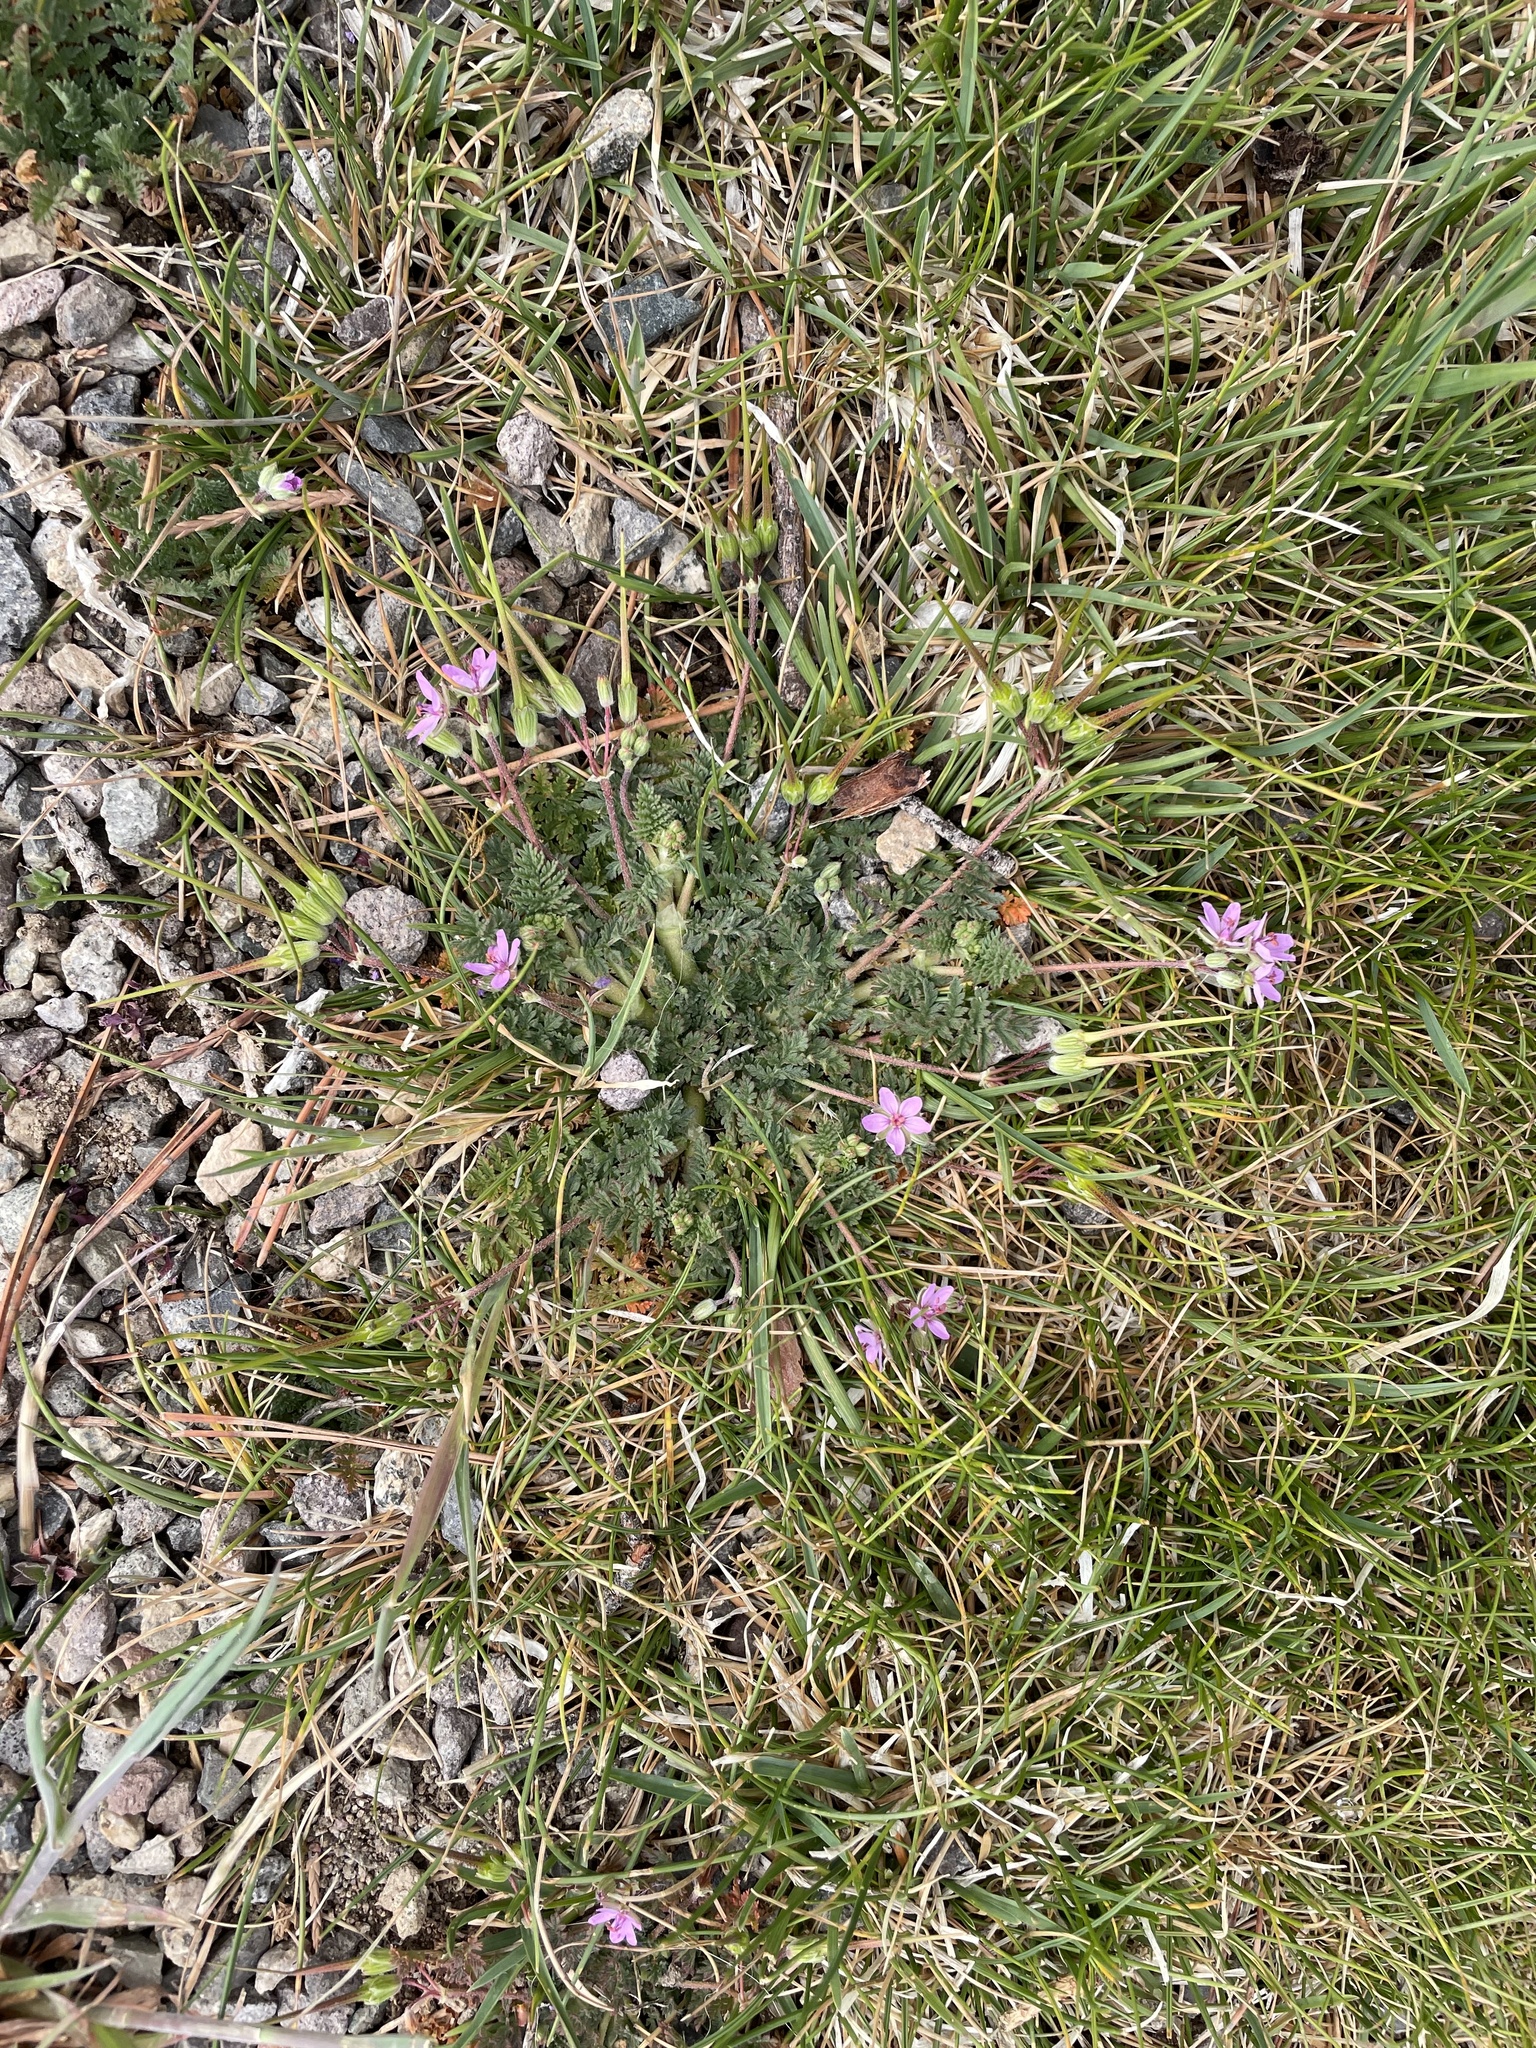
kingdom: Plantae
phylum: Tracheophyta
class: Magnoliopsida
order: Geraniales
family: Geraniaceae
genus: Erodium
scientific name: Erodium cicutarium
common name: Common stork's-bill
